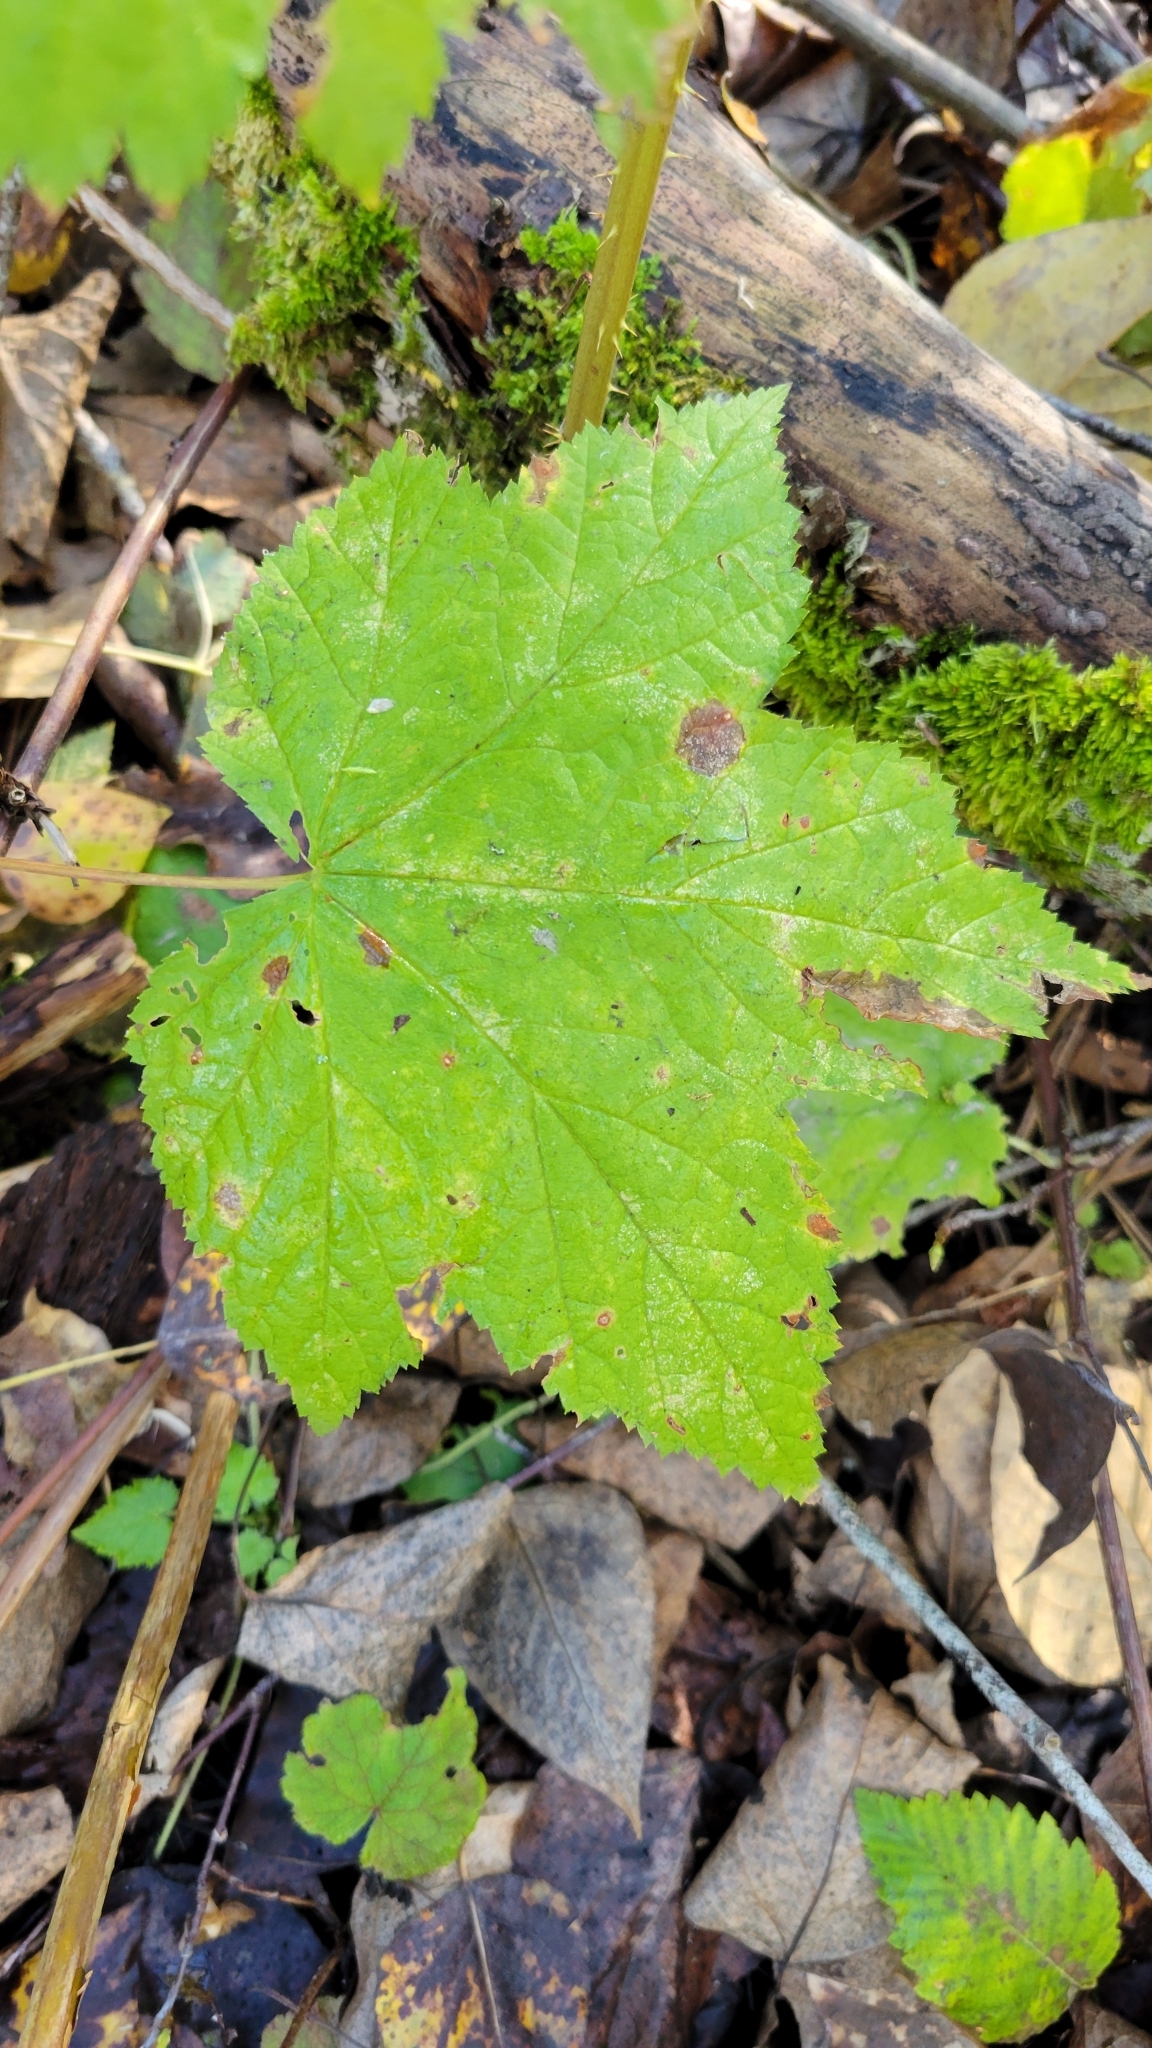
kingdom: Plantae
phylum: Tracheophyta
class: Magnoliopsida
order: Rosales
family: Rosaceae
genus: Rubus
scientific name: Rubus parviflorus
